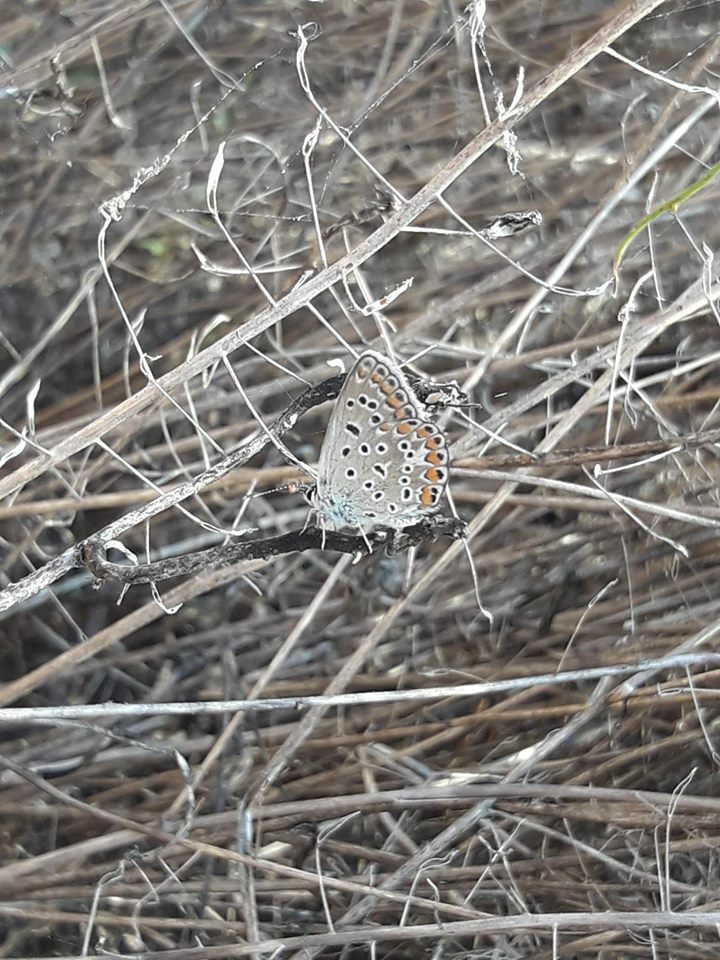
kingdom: Animalia
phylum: Arthropoda
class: Insecta
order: Lepidoptera
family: Lycaenidae
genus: Polyommatus
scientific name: Polyommatus icarus
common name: Common blue
